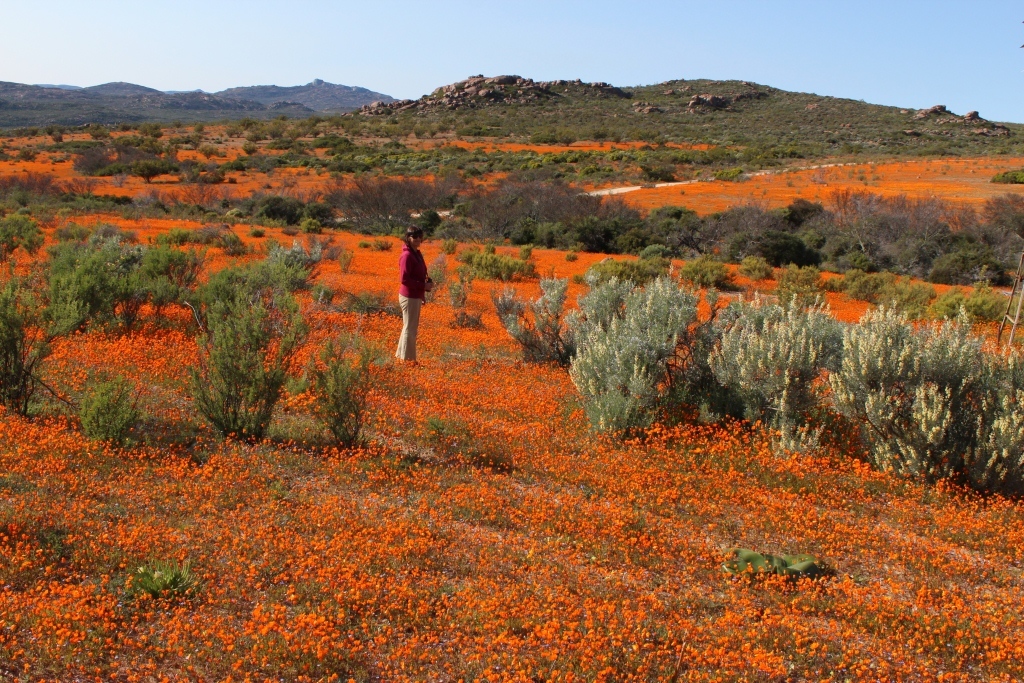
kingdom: Plantae
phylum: Tracheophyta
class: Magnoliopsida
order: Asterales
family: Asteraceae
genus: Dimorphotheca
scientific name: Dimorphotheca sinuata
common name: Glandular cape marigold
